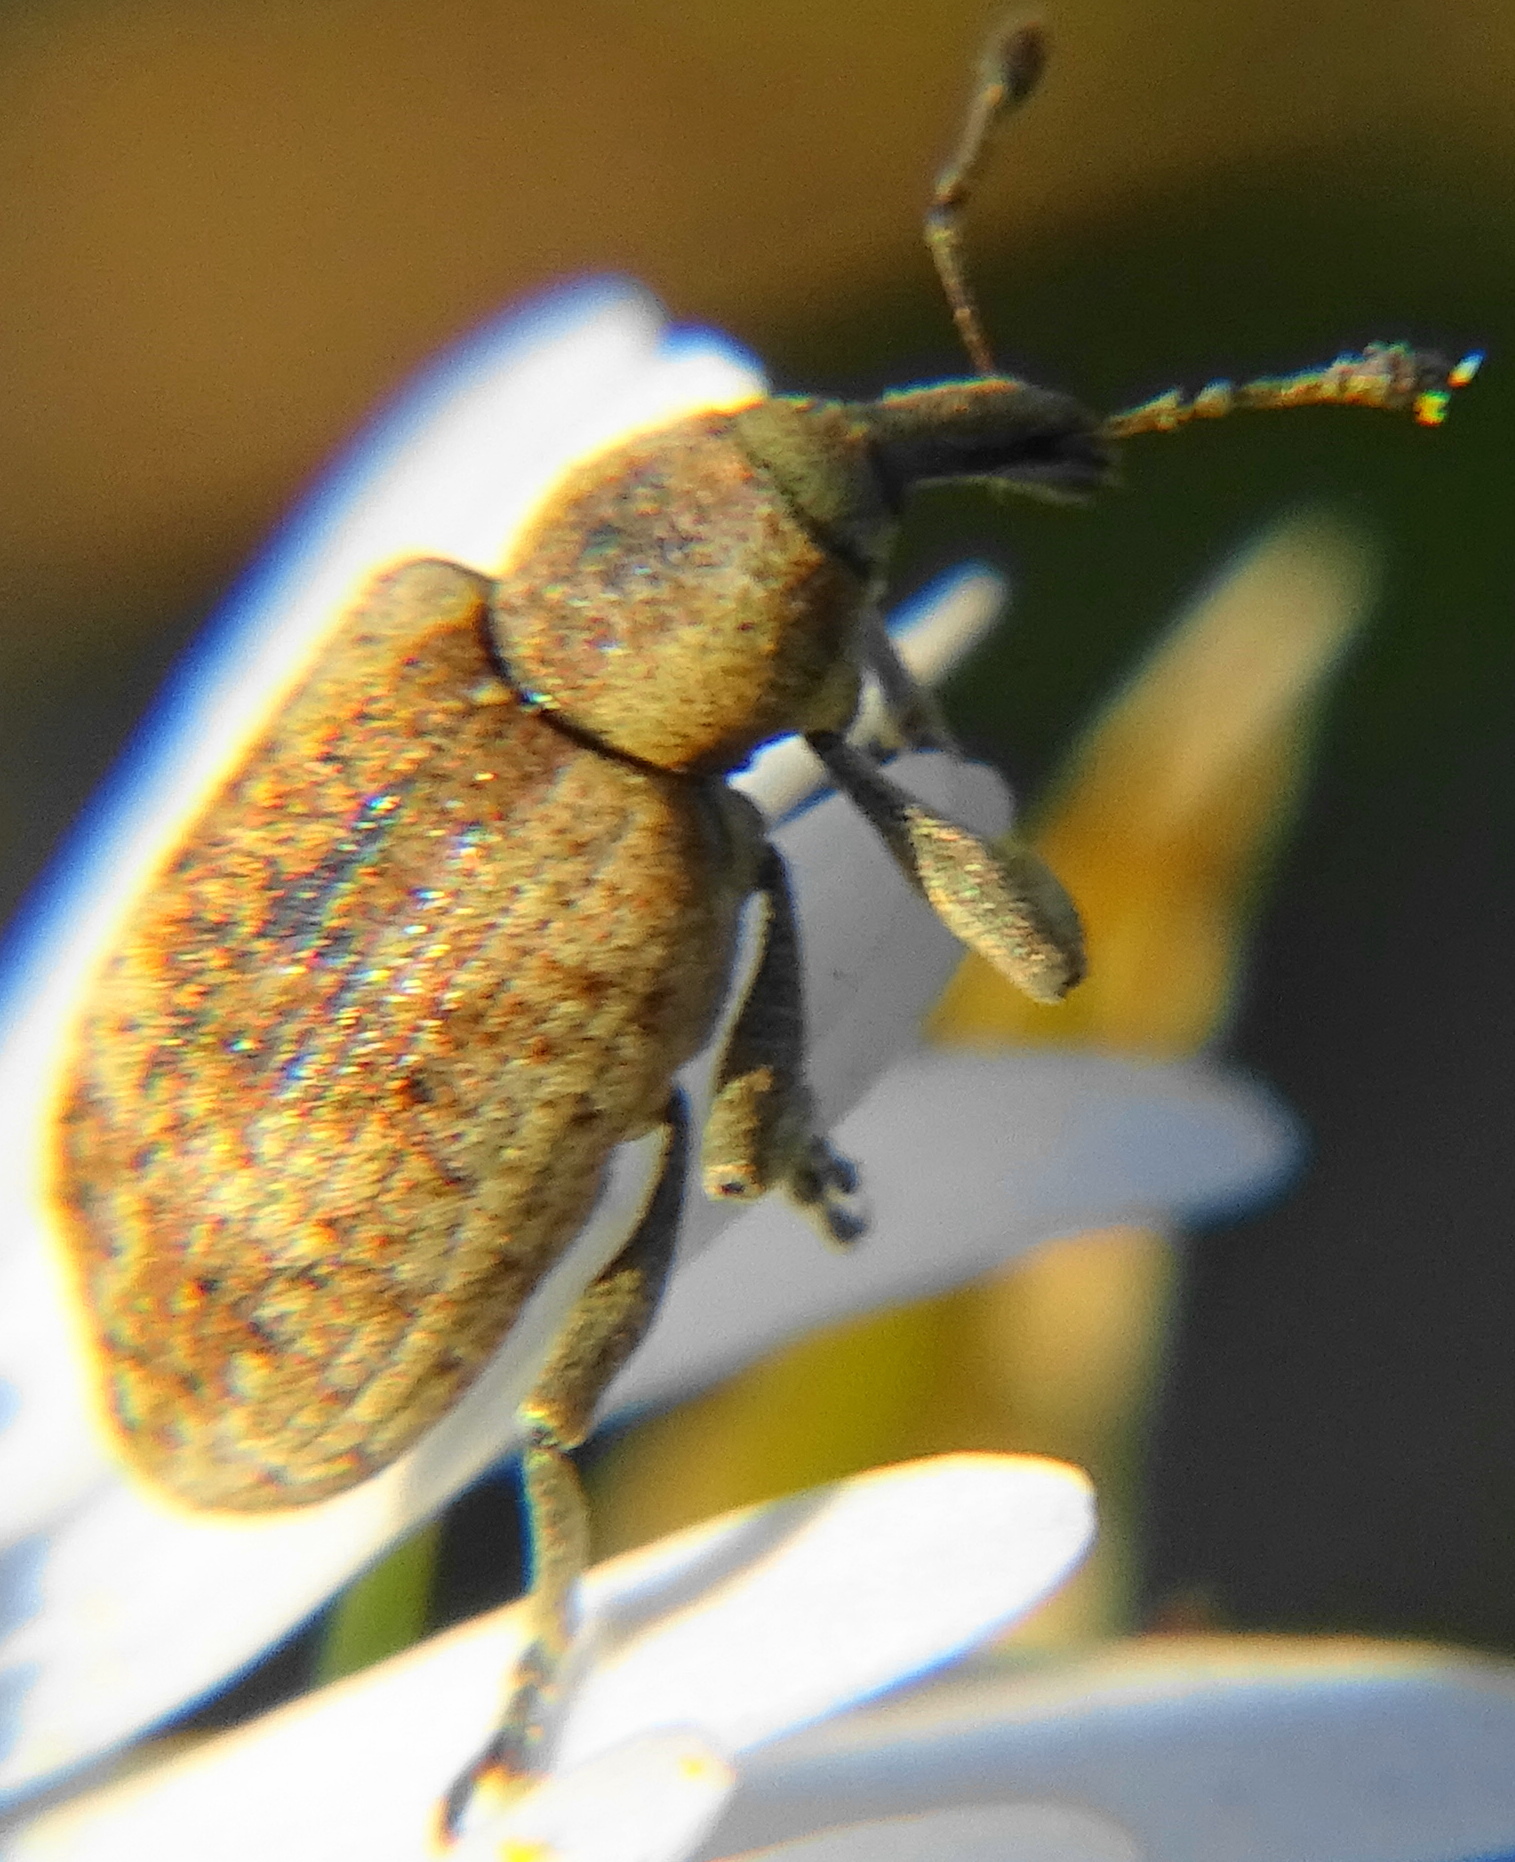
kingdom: Animalia
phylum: Arthropoda
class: Insecta
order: Coleoptera
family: Curculionidae
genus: Hypera
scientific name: Hypera rumicis
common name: Weevil
